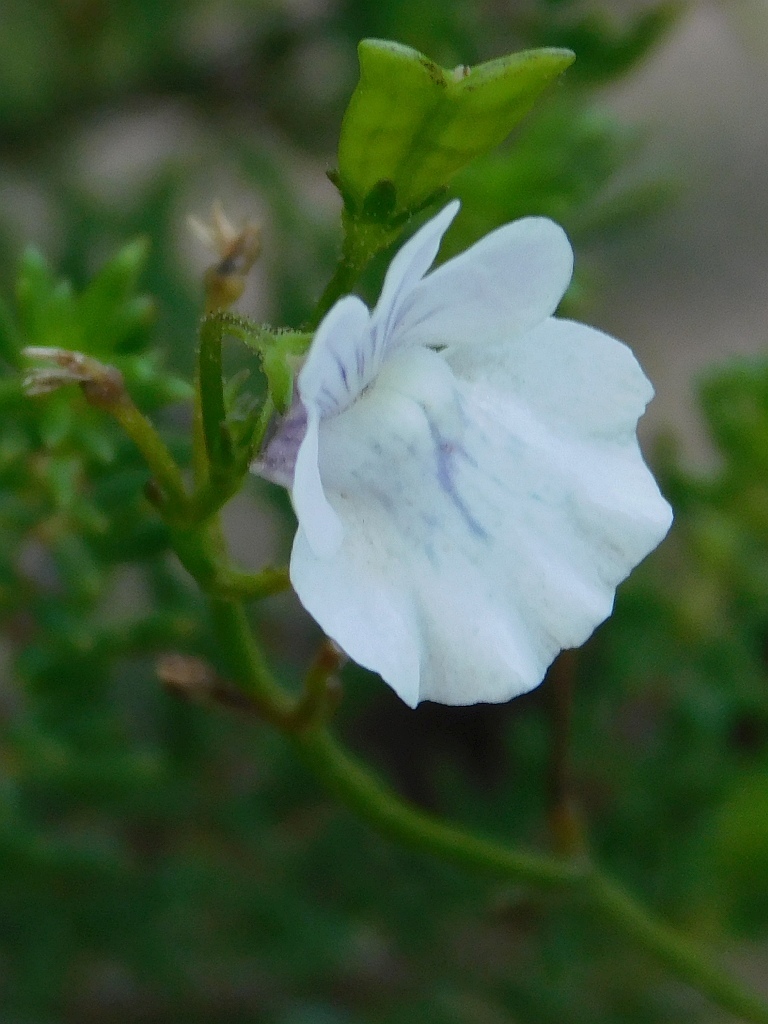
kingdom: Plantae
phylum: Tracheophyta
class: Magnoliopsida
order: Lamiales
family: Scrophulariaceae
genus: Nemesia
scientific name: Nemesia affinis
